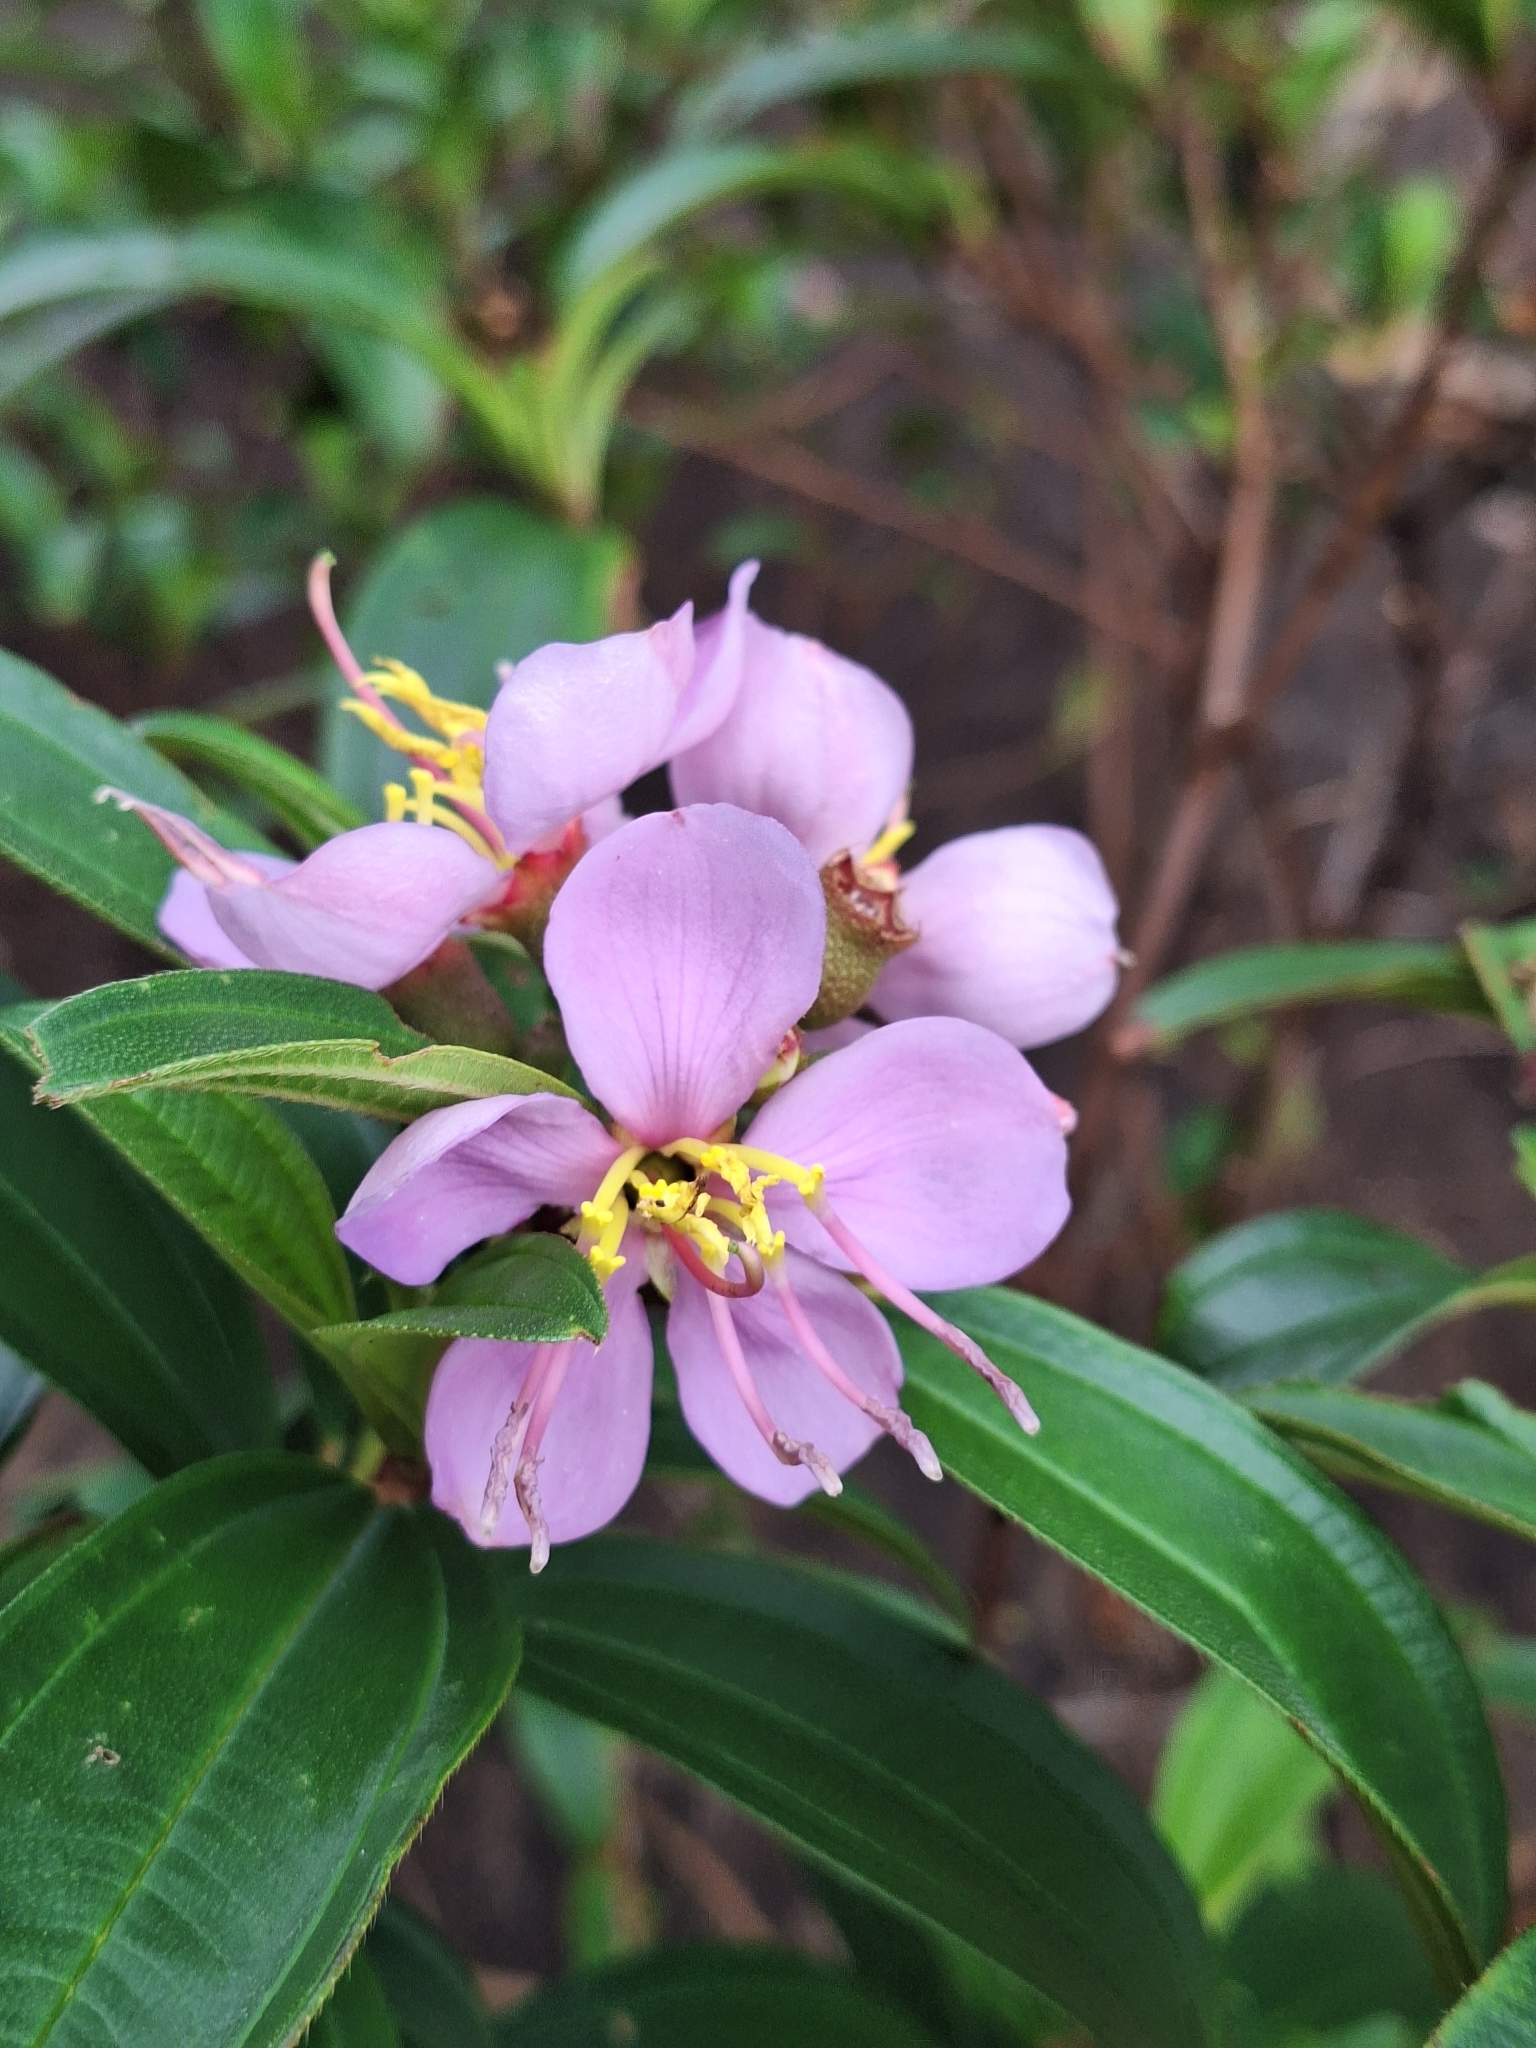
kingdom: Plantae
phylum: Tracheophyta
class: Magnoliopsida
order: Myrtales
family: Melastomataceae
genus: Melastoma
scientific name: Melastoma malabathricum
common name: Indian-rhododendron
